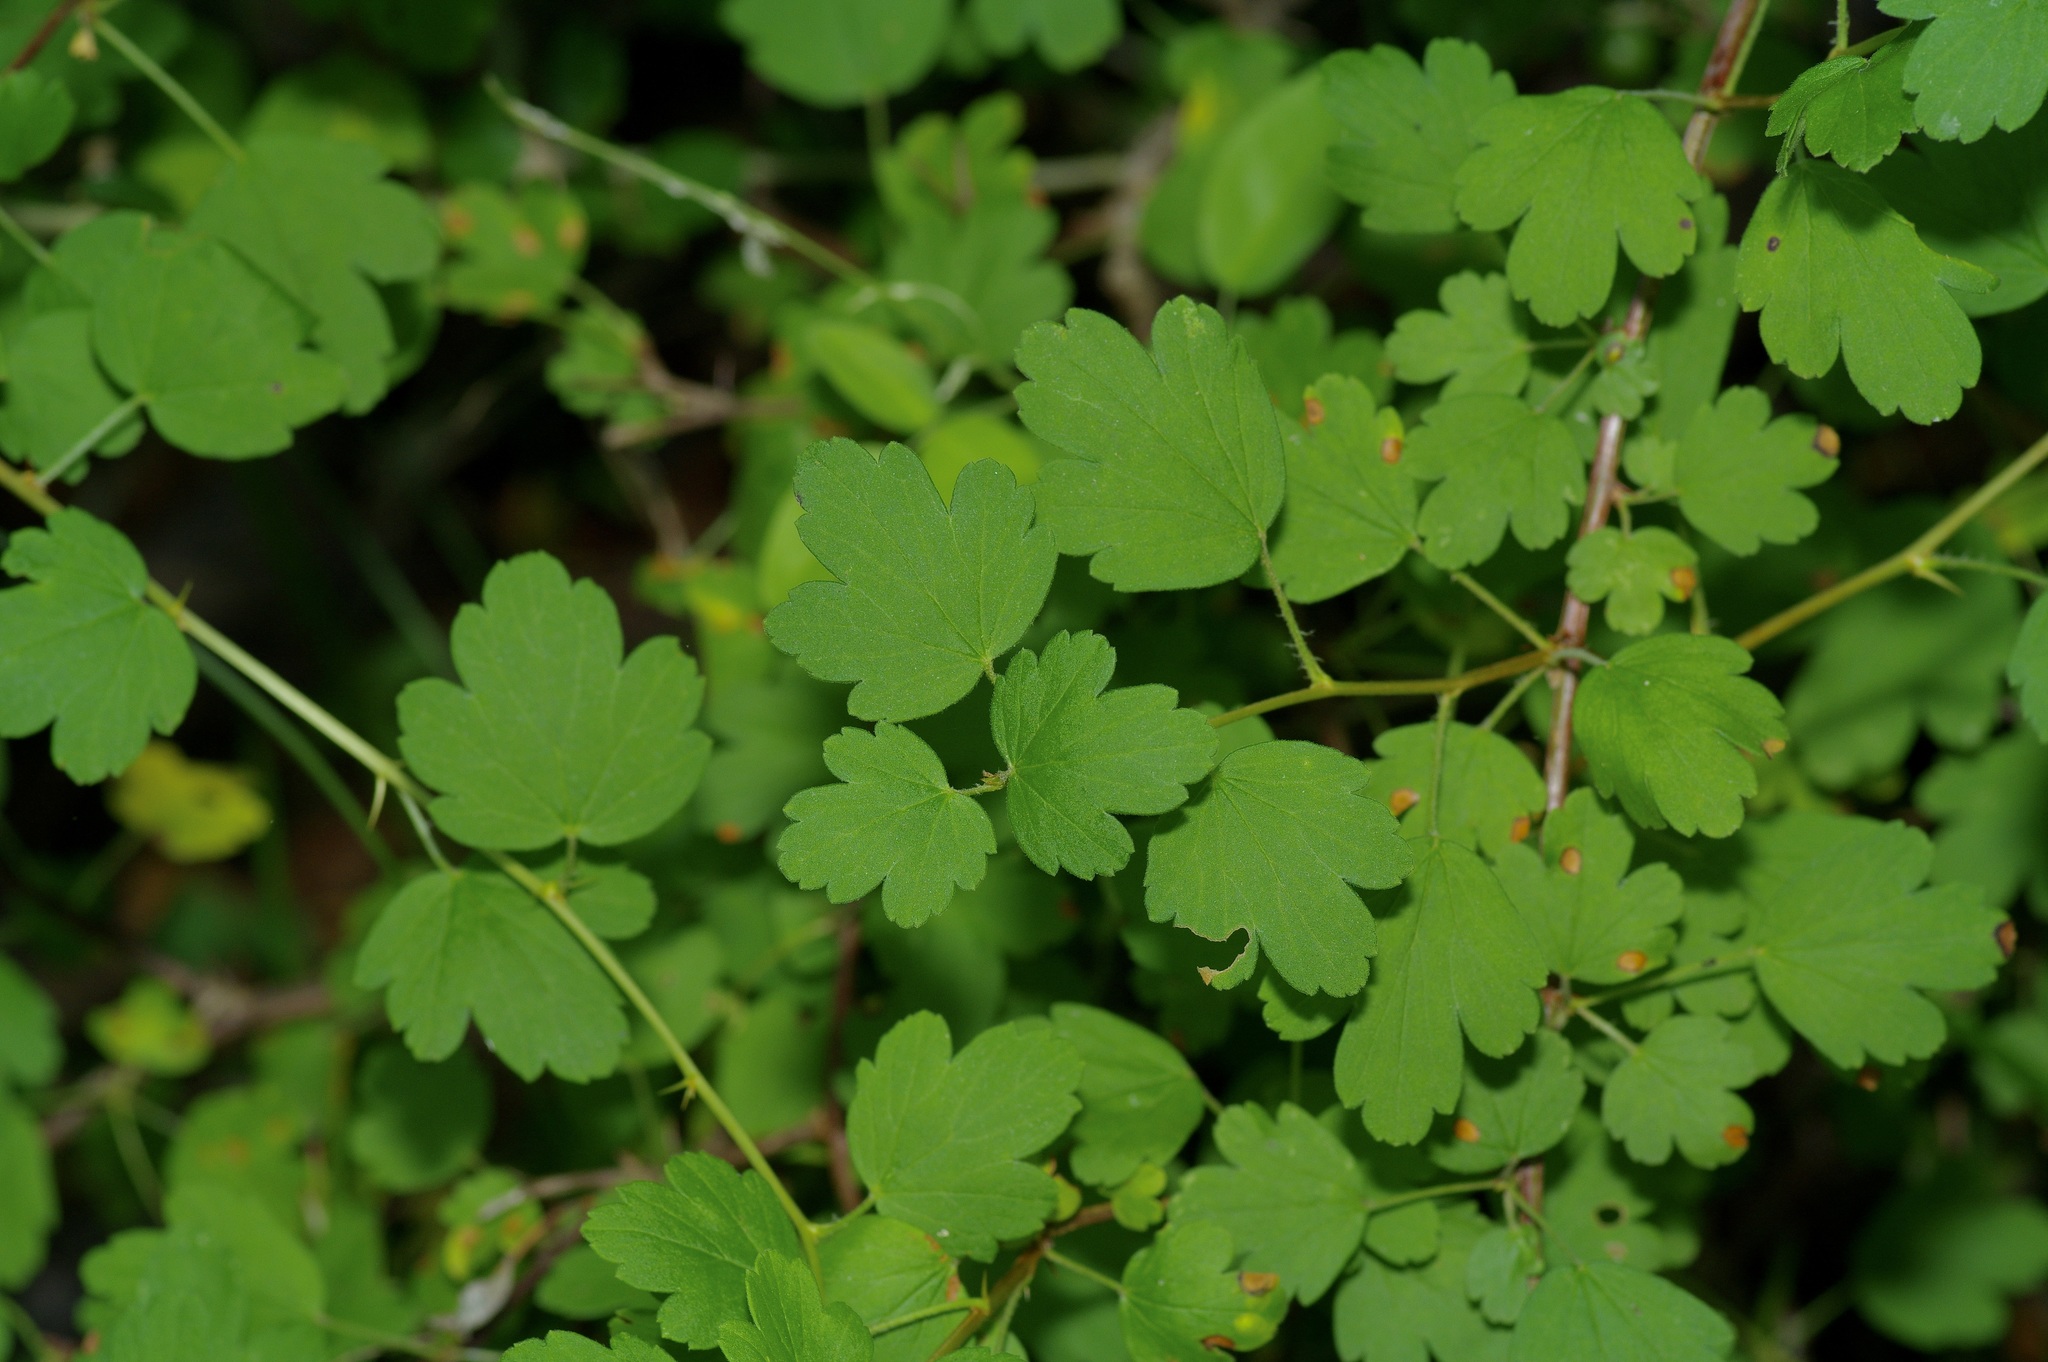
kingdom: Plantae
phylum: Tracheophyta
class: Magnoliopsida
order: Saxifragales
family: Grossulariaceae
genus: Ribes
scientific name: Ribes curvatum
